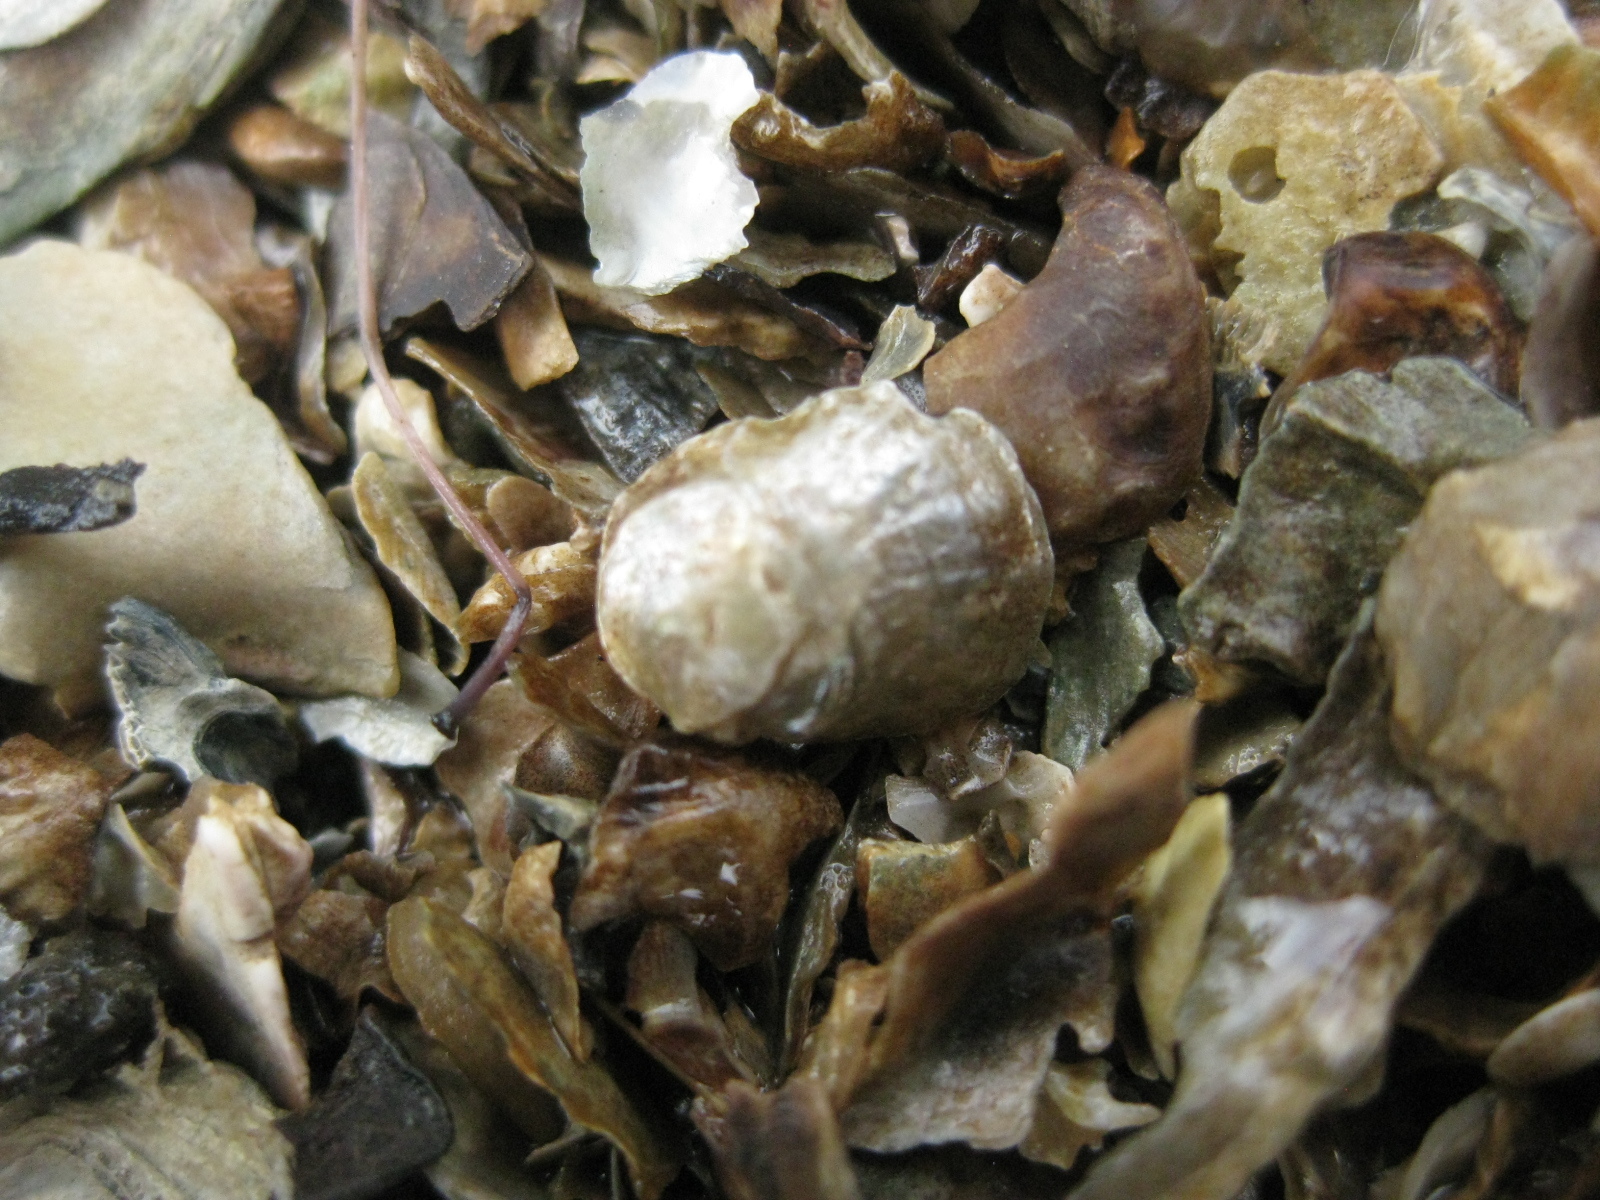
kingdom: Animalia
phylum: Mollusca
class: Bivalvia
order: Pectinida
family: Anomiidae
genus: Anomia
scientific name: Anomia trigonopsis
